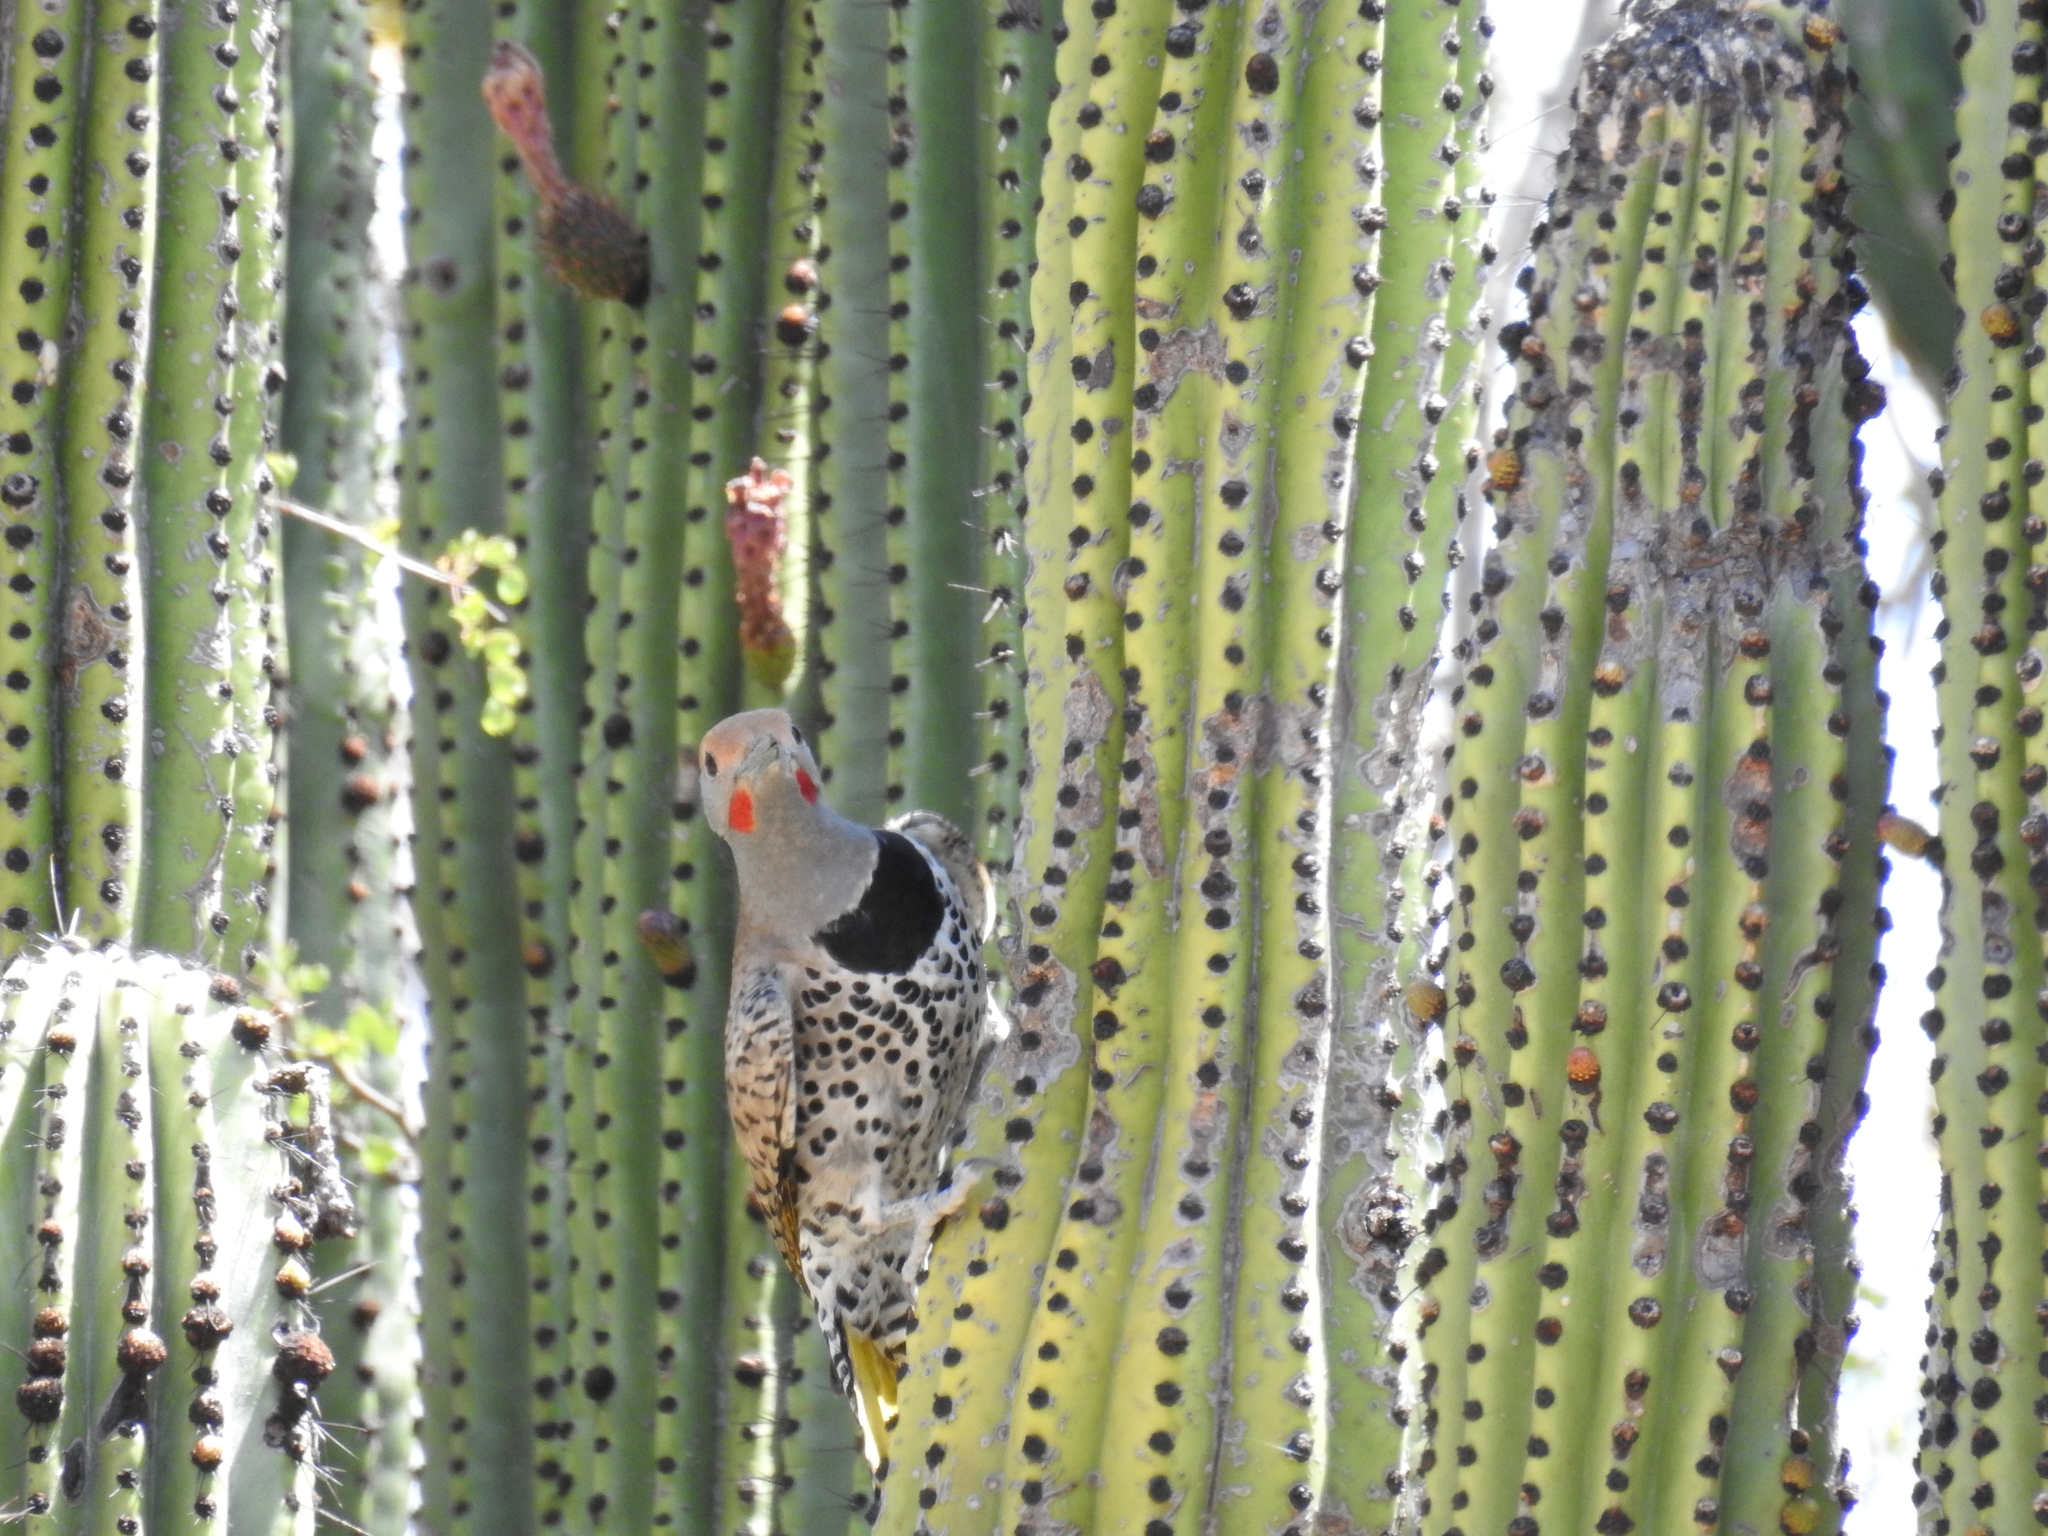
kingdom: Animalia
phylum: Chordata
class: Aves
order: Piciformes
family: Picidae
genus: Colaptes
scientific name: Colaptes chrysoides
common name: Gilded flicker
